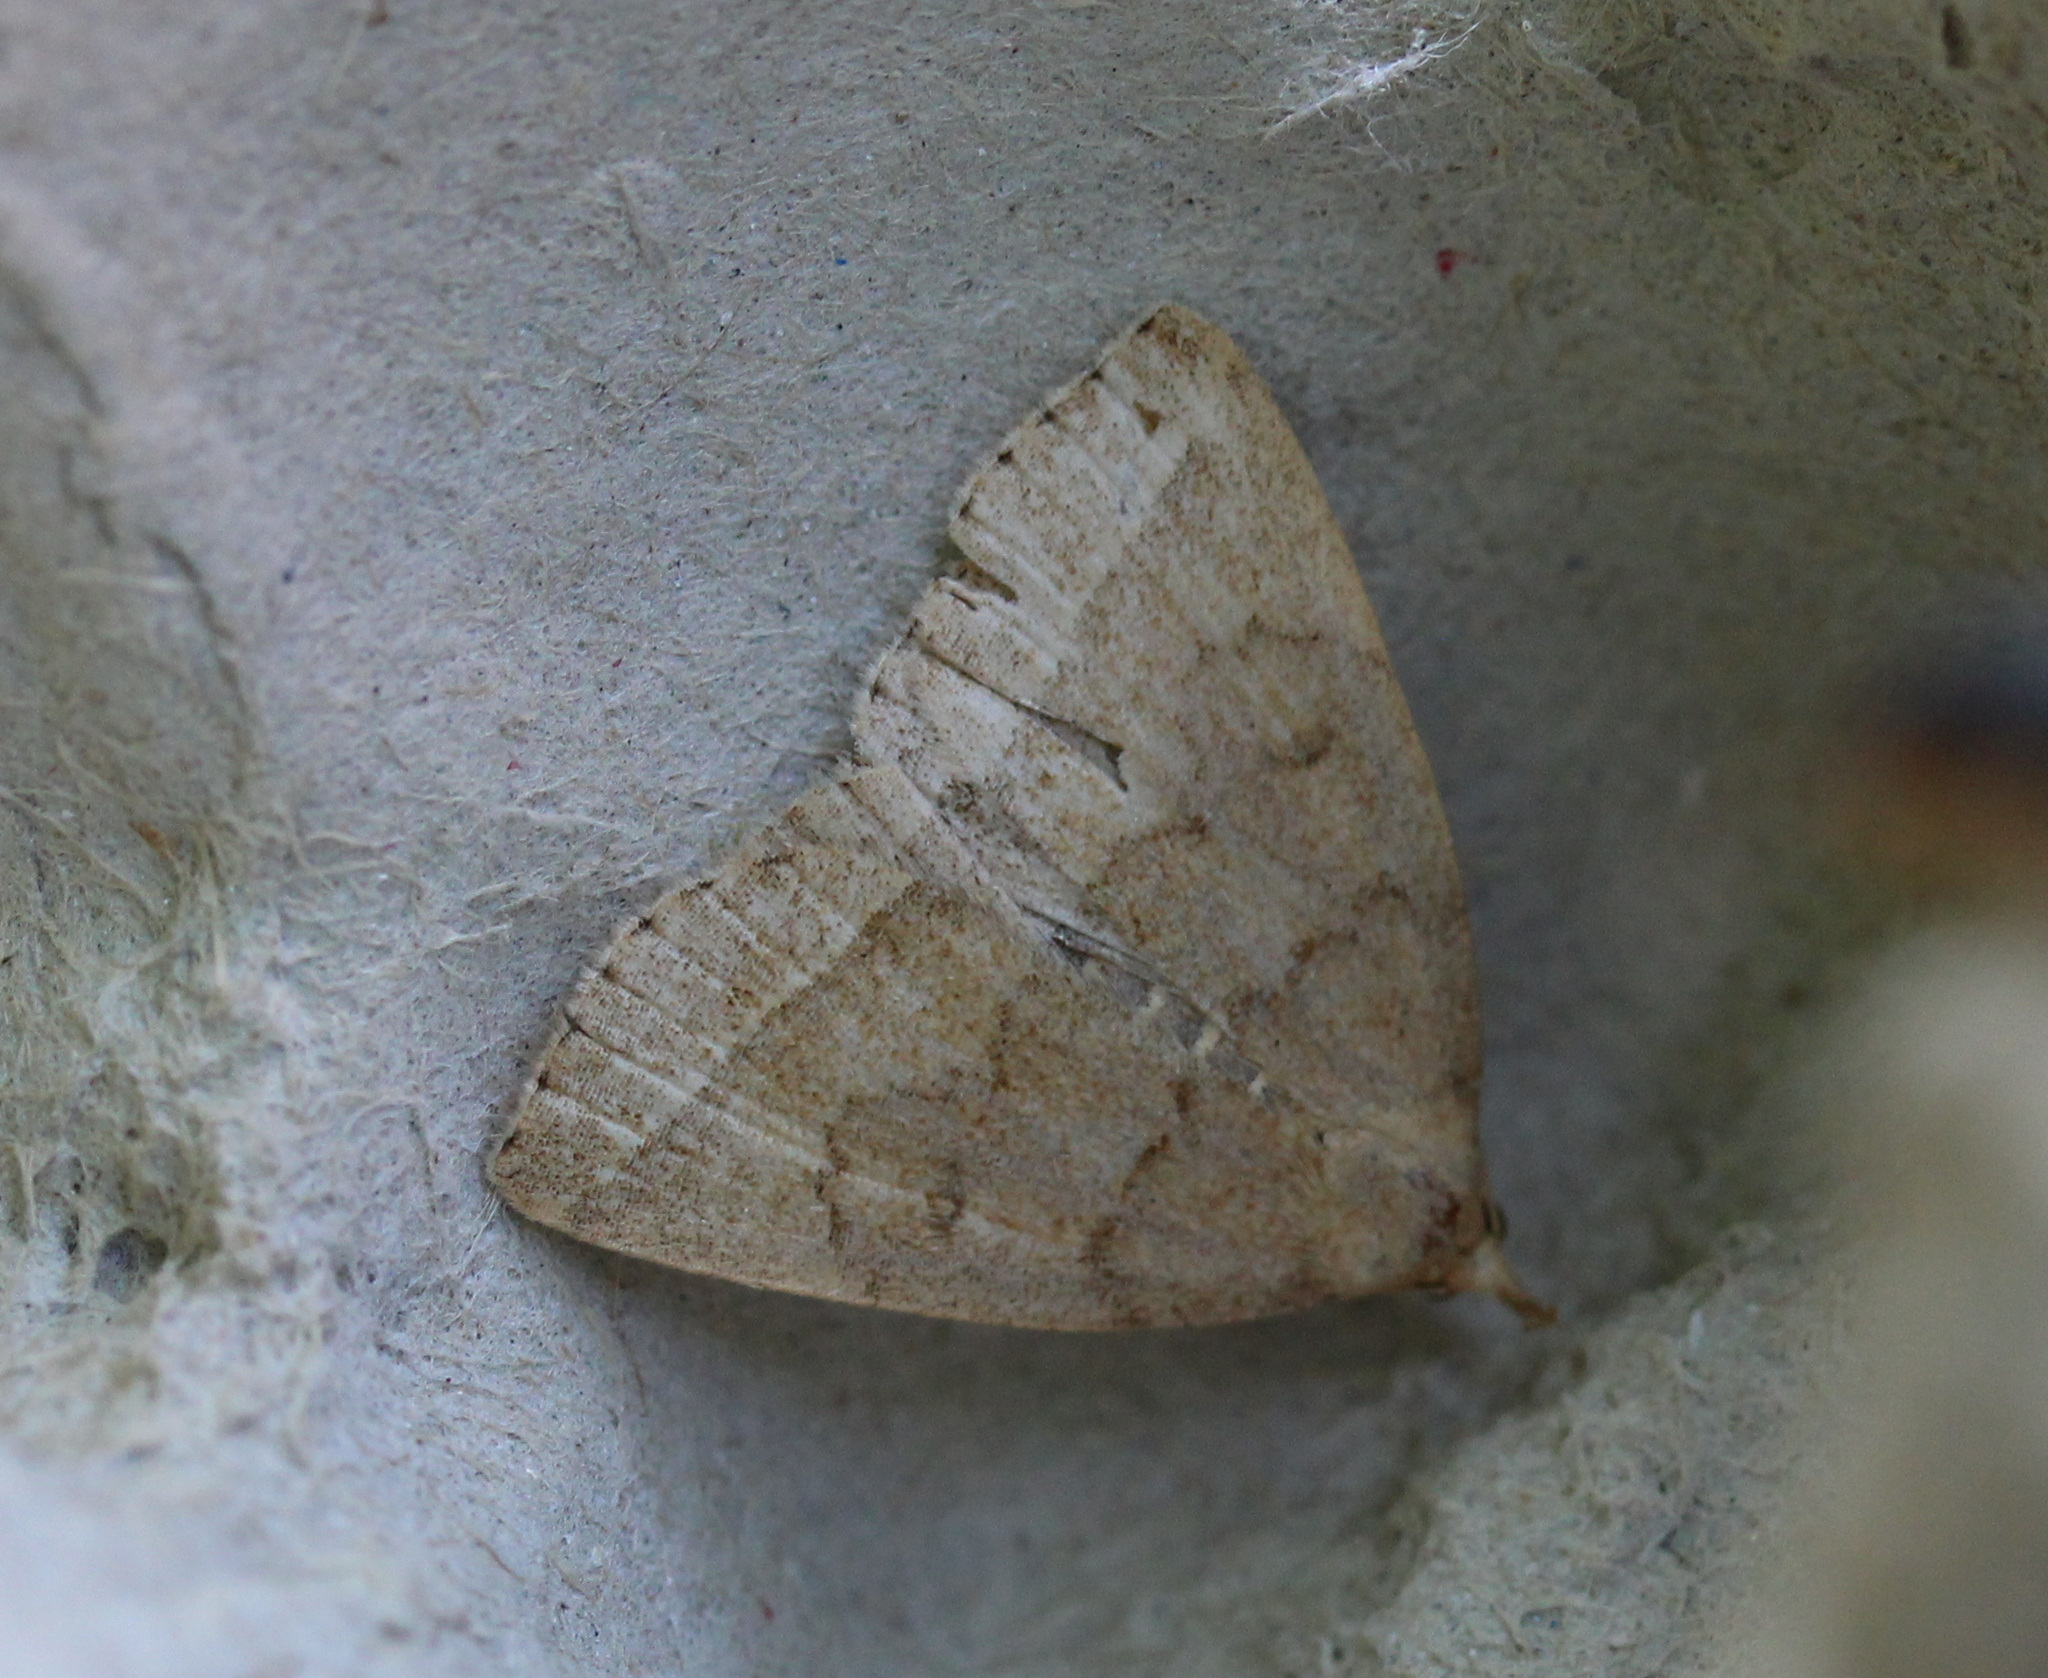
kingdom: Animalia
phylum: Arthropoda
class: Insecta
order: Lepidoptera
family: Erebidae
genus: Zanclognatha
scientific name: Zanclognatha jacchusalis
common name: Yellowish zanclognatha
